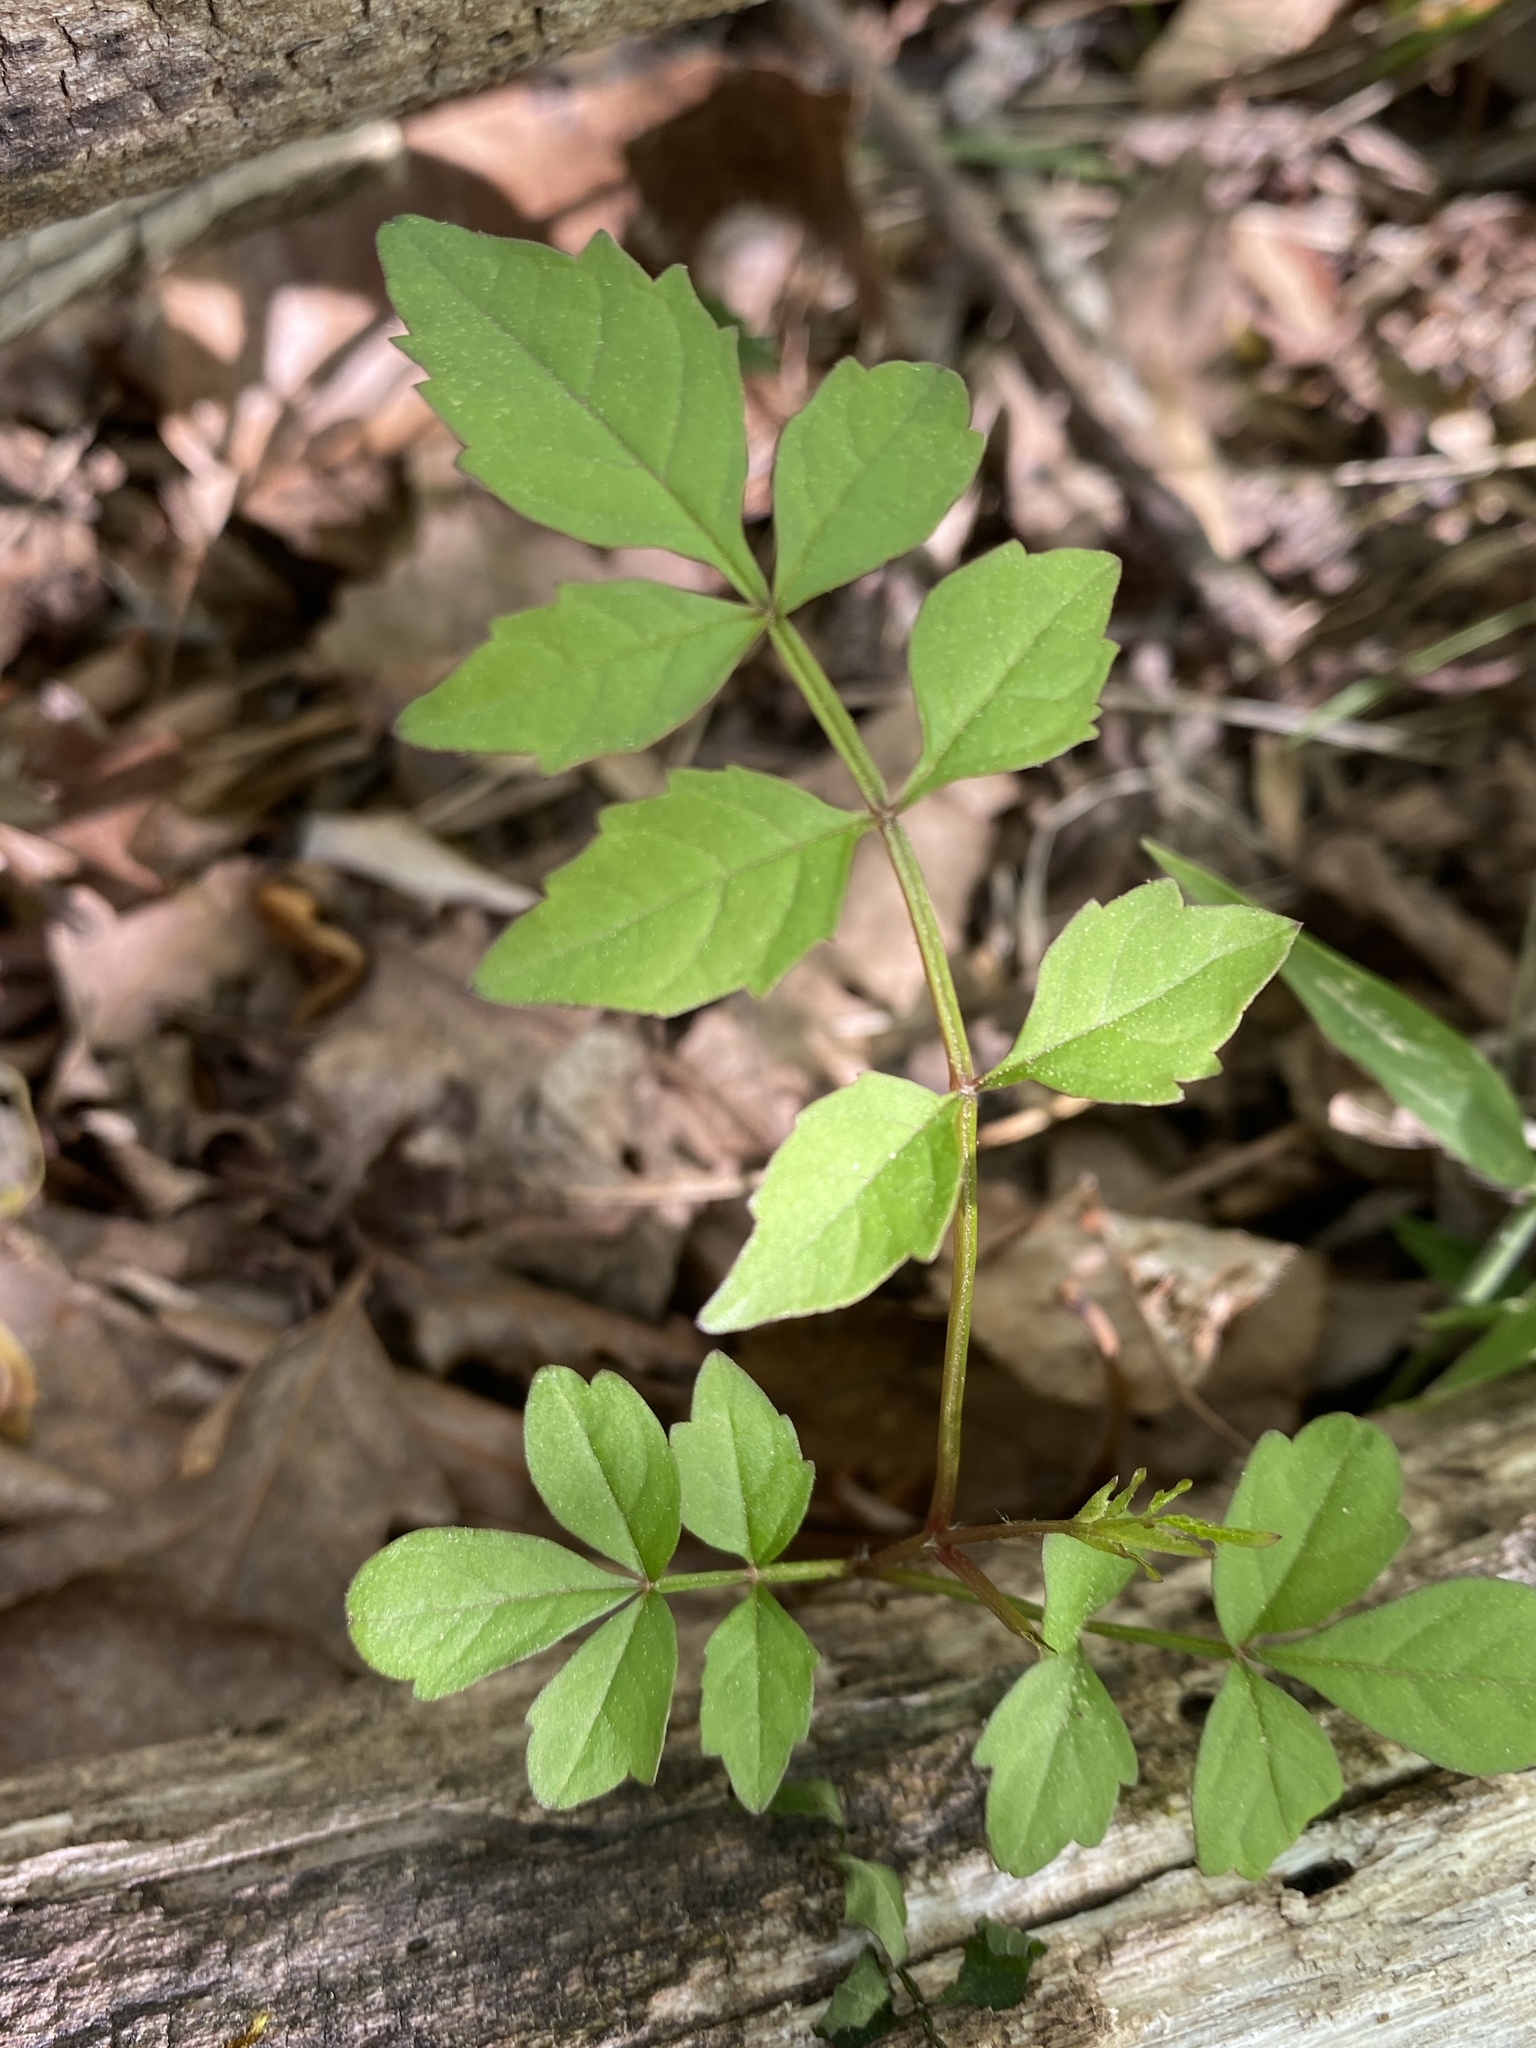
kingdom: Plantae
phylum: Tracheophyta
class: Magnoliopsida
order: Lamiales
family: Bignoniaceae
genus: Campsis
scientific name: Campsis radicans
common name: Trumpet-creeper
